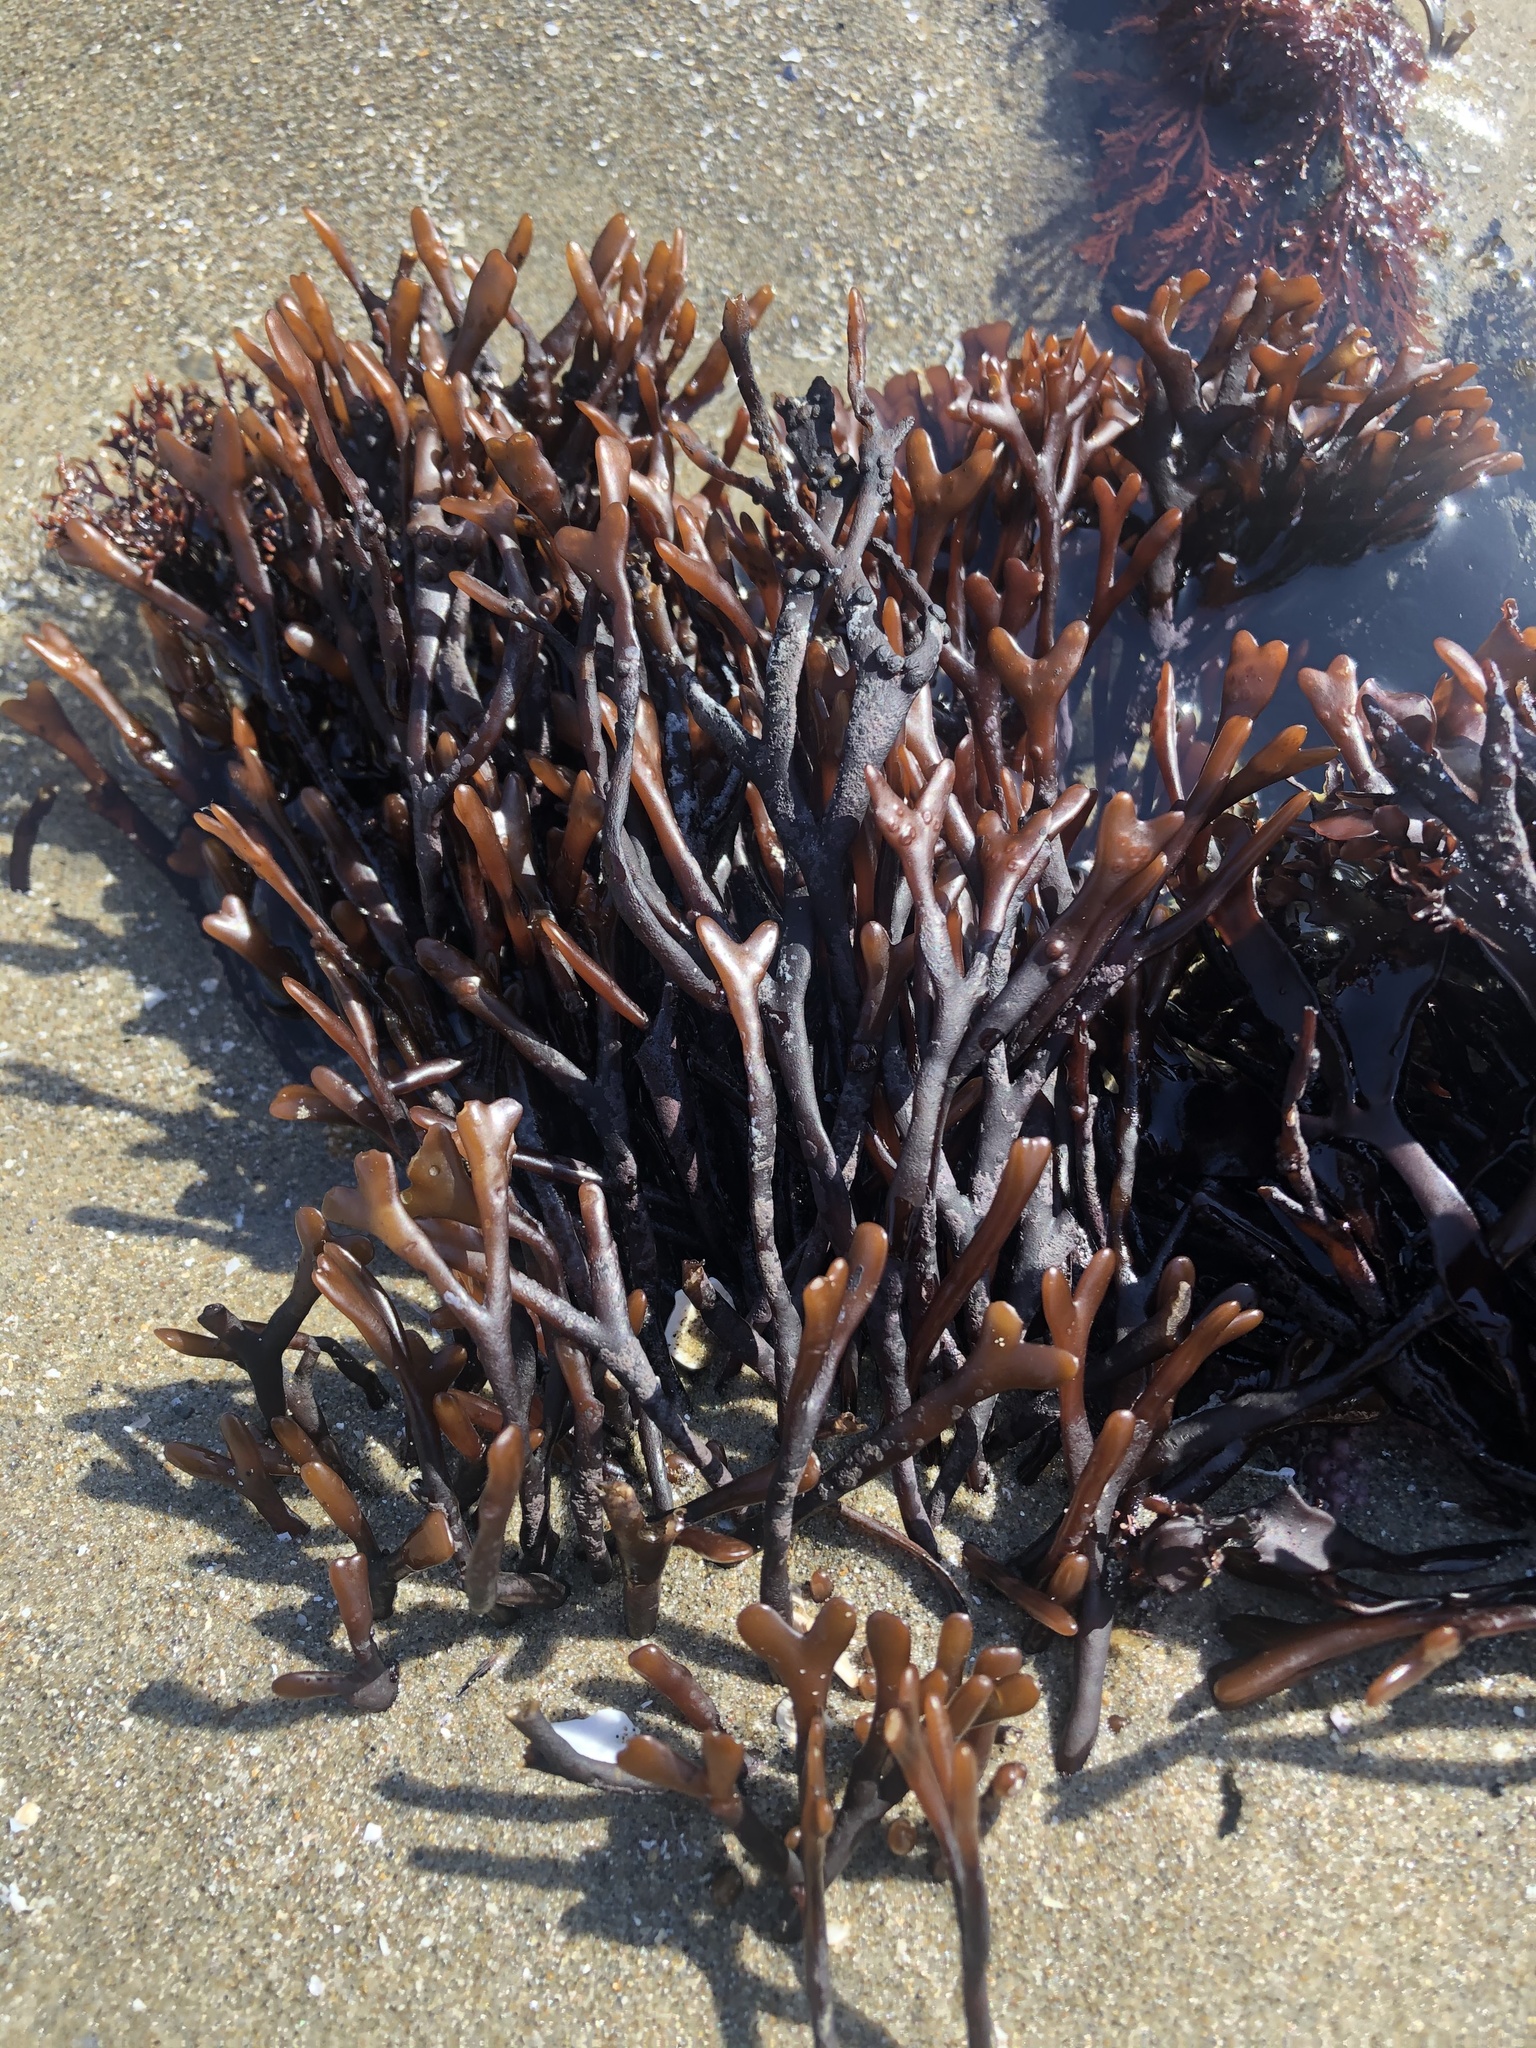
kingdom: Plantae
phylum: Rhodophyta
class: Florideophyceae
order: Gigartinales
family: Phyllophoraceae
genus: Ahnfeltiopsis
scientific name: Ahnfeltiopsis linearis
